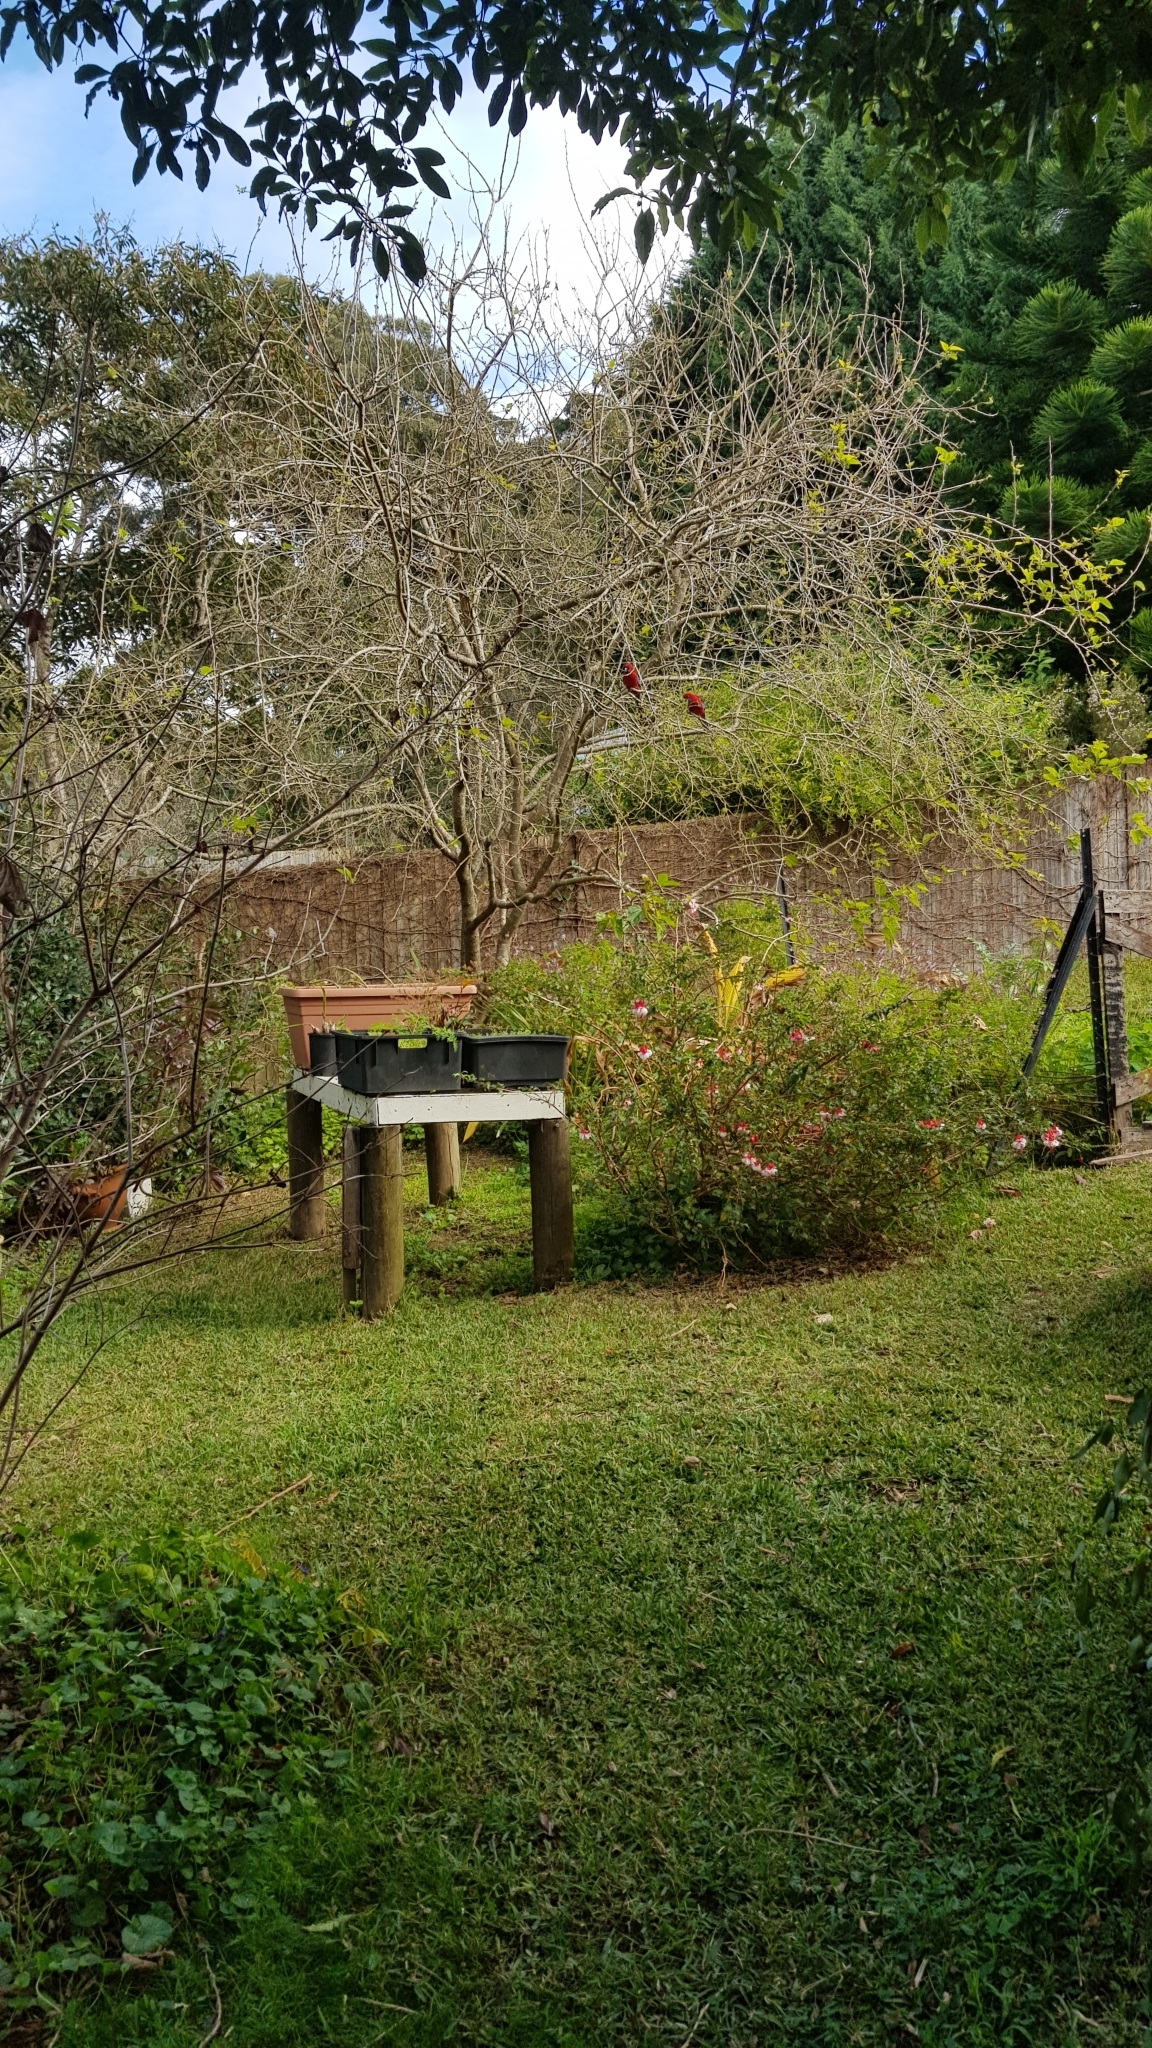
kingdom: Animalia
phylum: Chordata
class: Aves
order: Psittaciformes
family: Psittacidae
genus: Platycercus
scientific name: Platycercus elegans
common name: Crimson rosella
